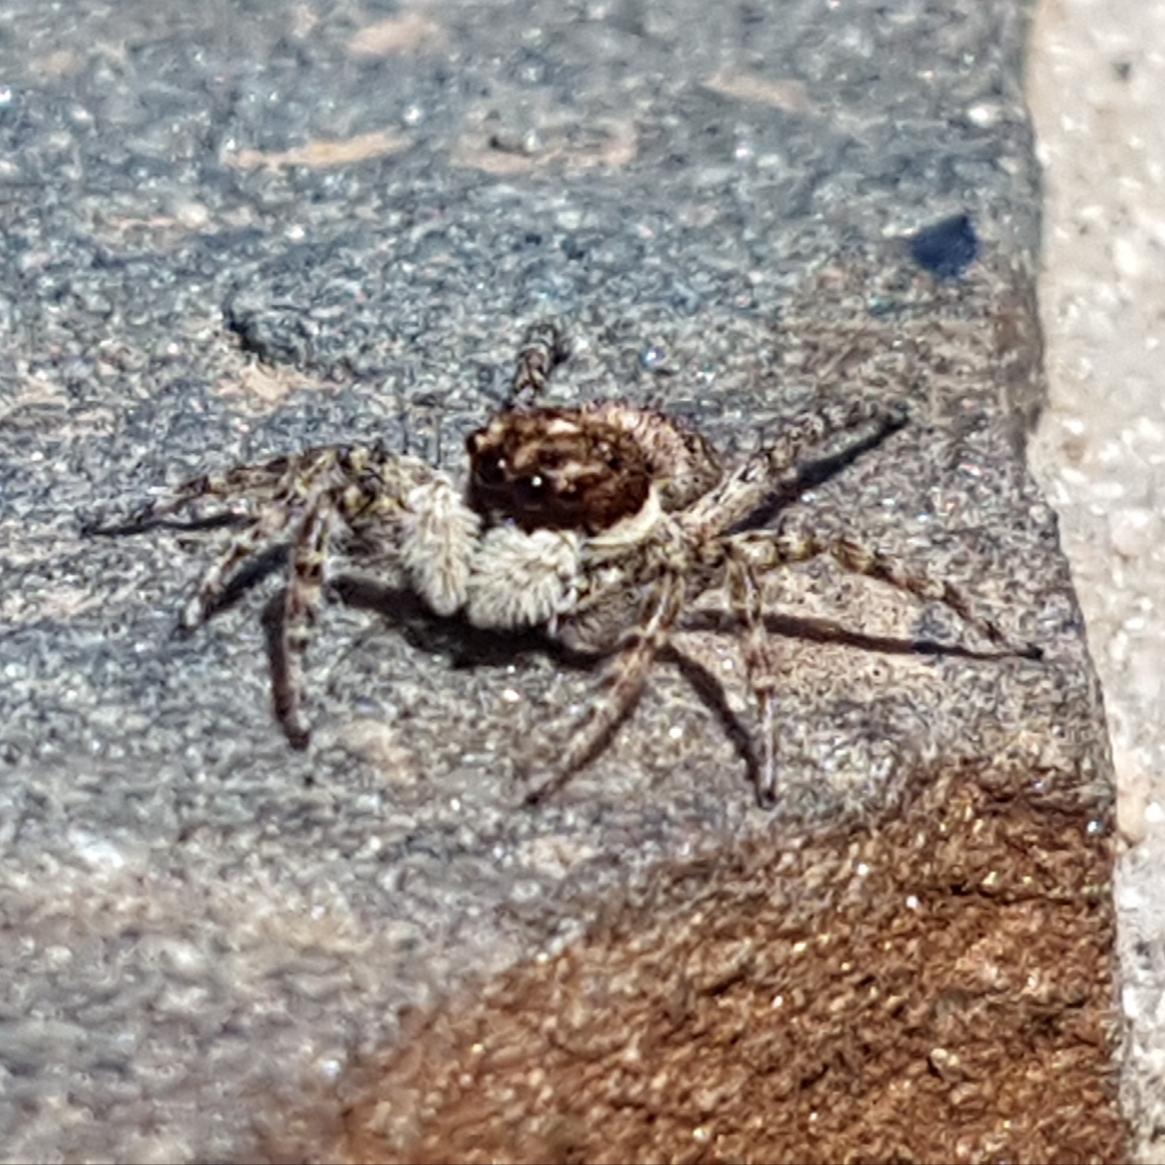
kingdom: Animalia
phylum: Arthropoda
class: Arachnida
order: Araneae
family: Salticidae
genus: Menemerus
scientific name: Menemerus semilimbatus
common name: Jumping spider
